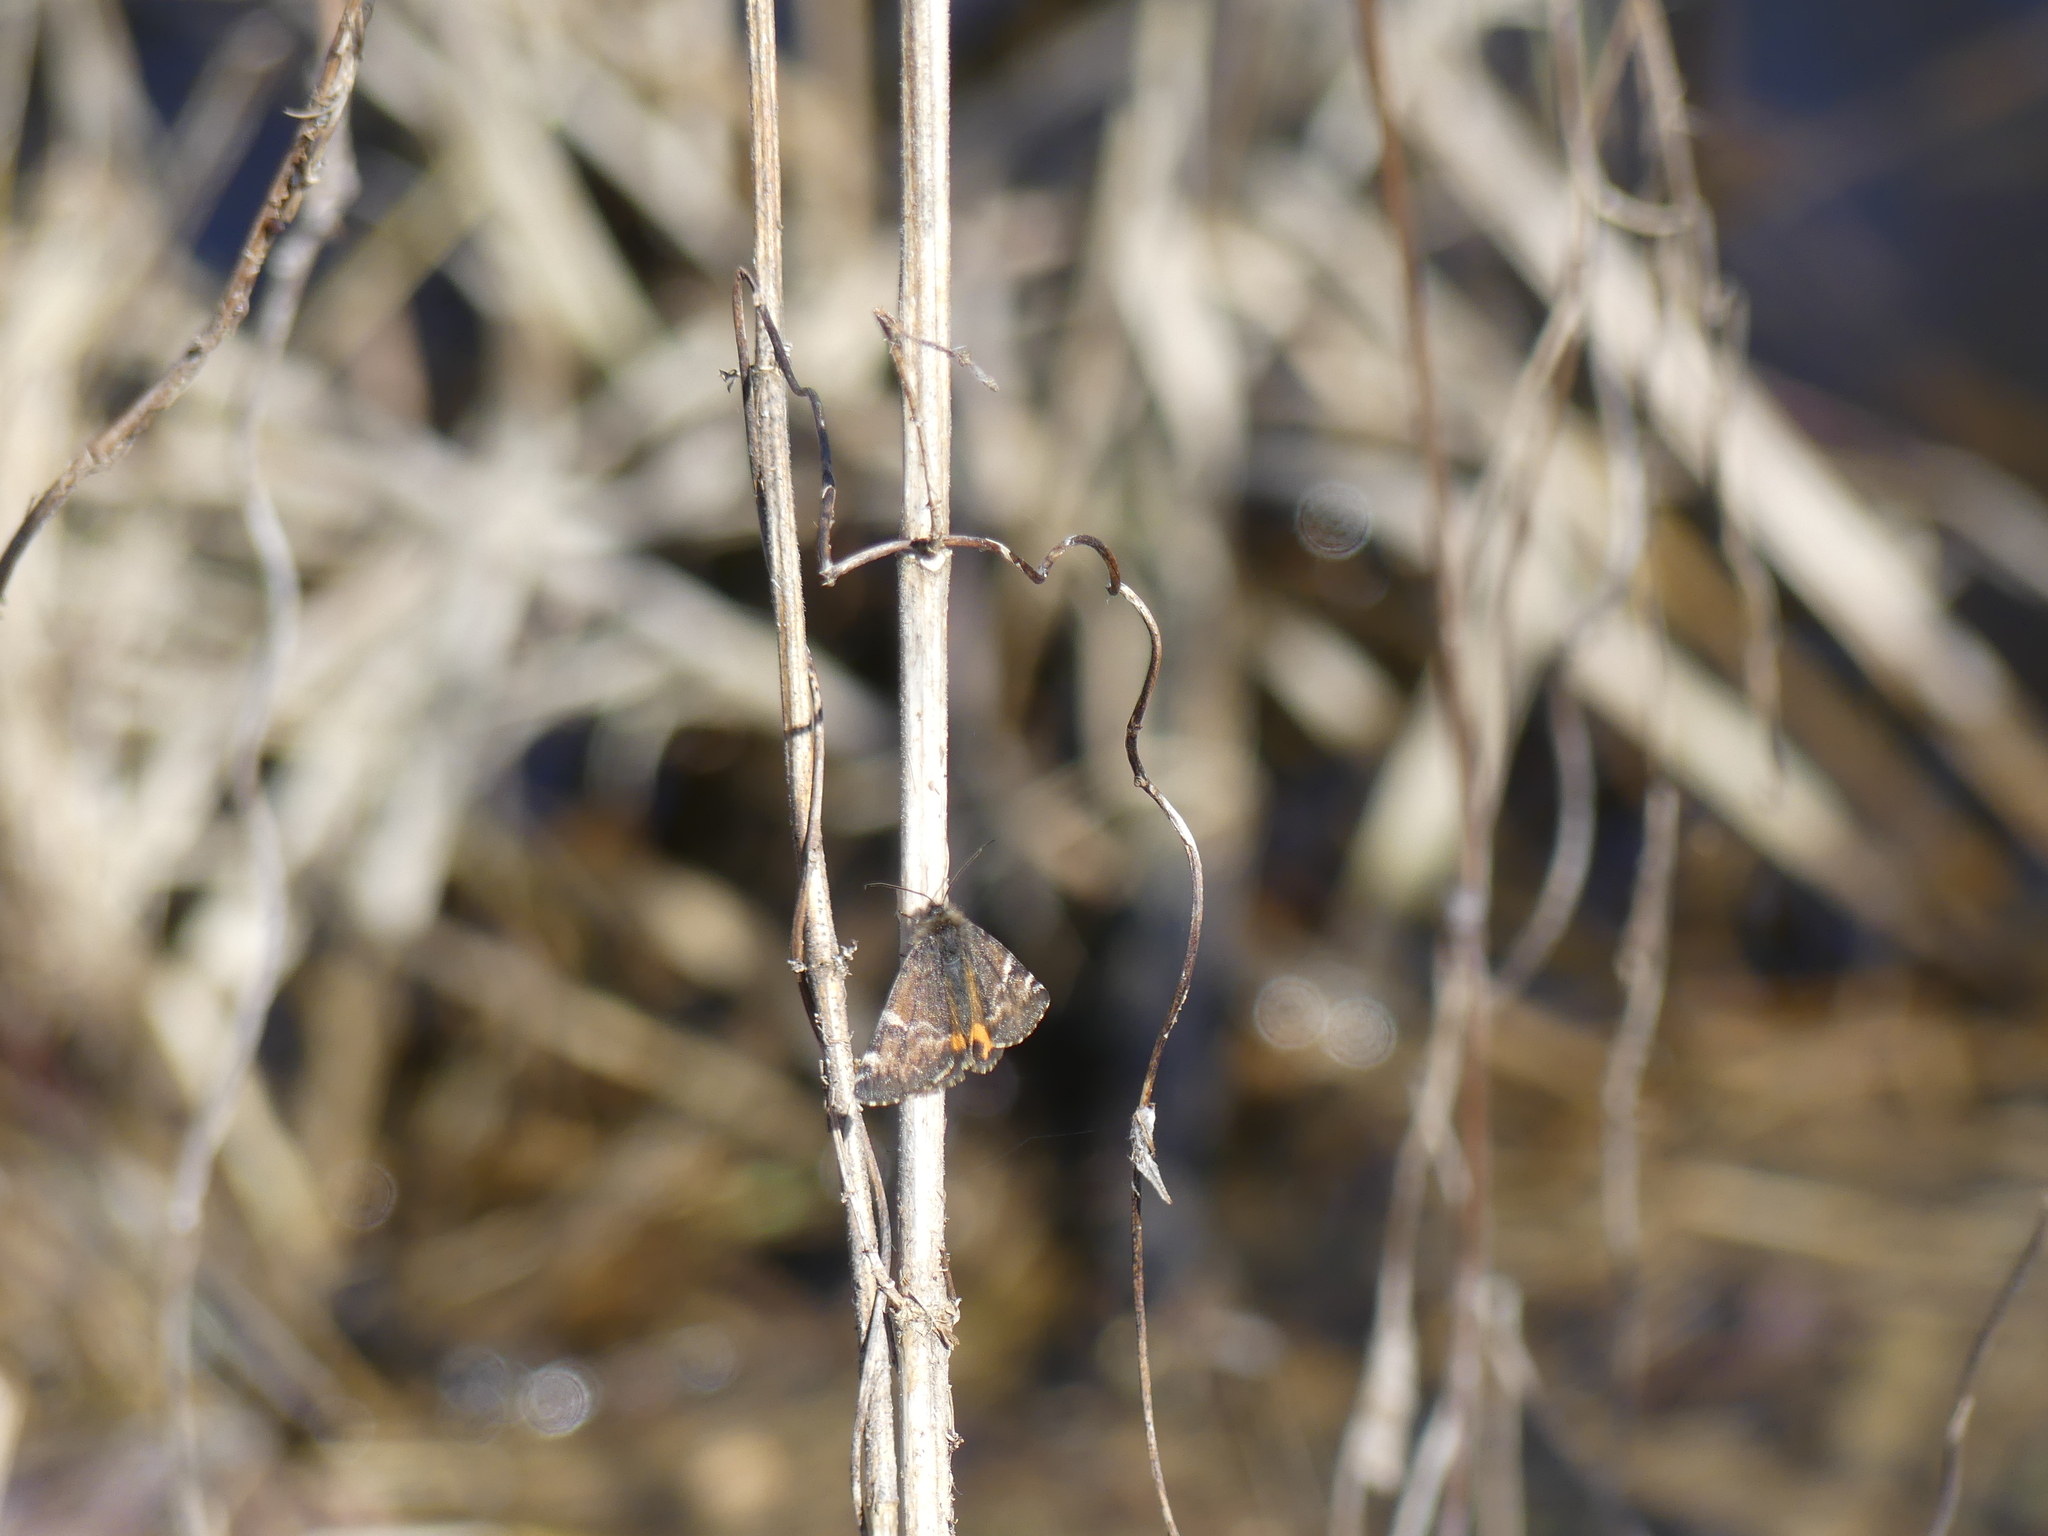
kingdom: Animalia
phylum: Arthropoda
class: Insecta
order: Lepidoptera
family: Geometridae
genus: Archiearis
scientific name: Archiearis parthenias
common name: Orange underwing
